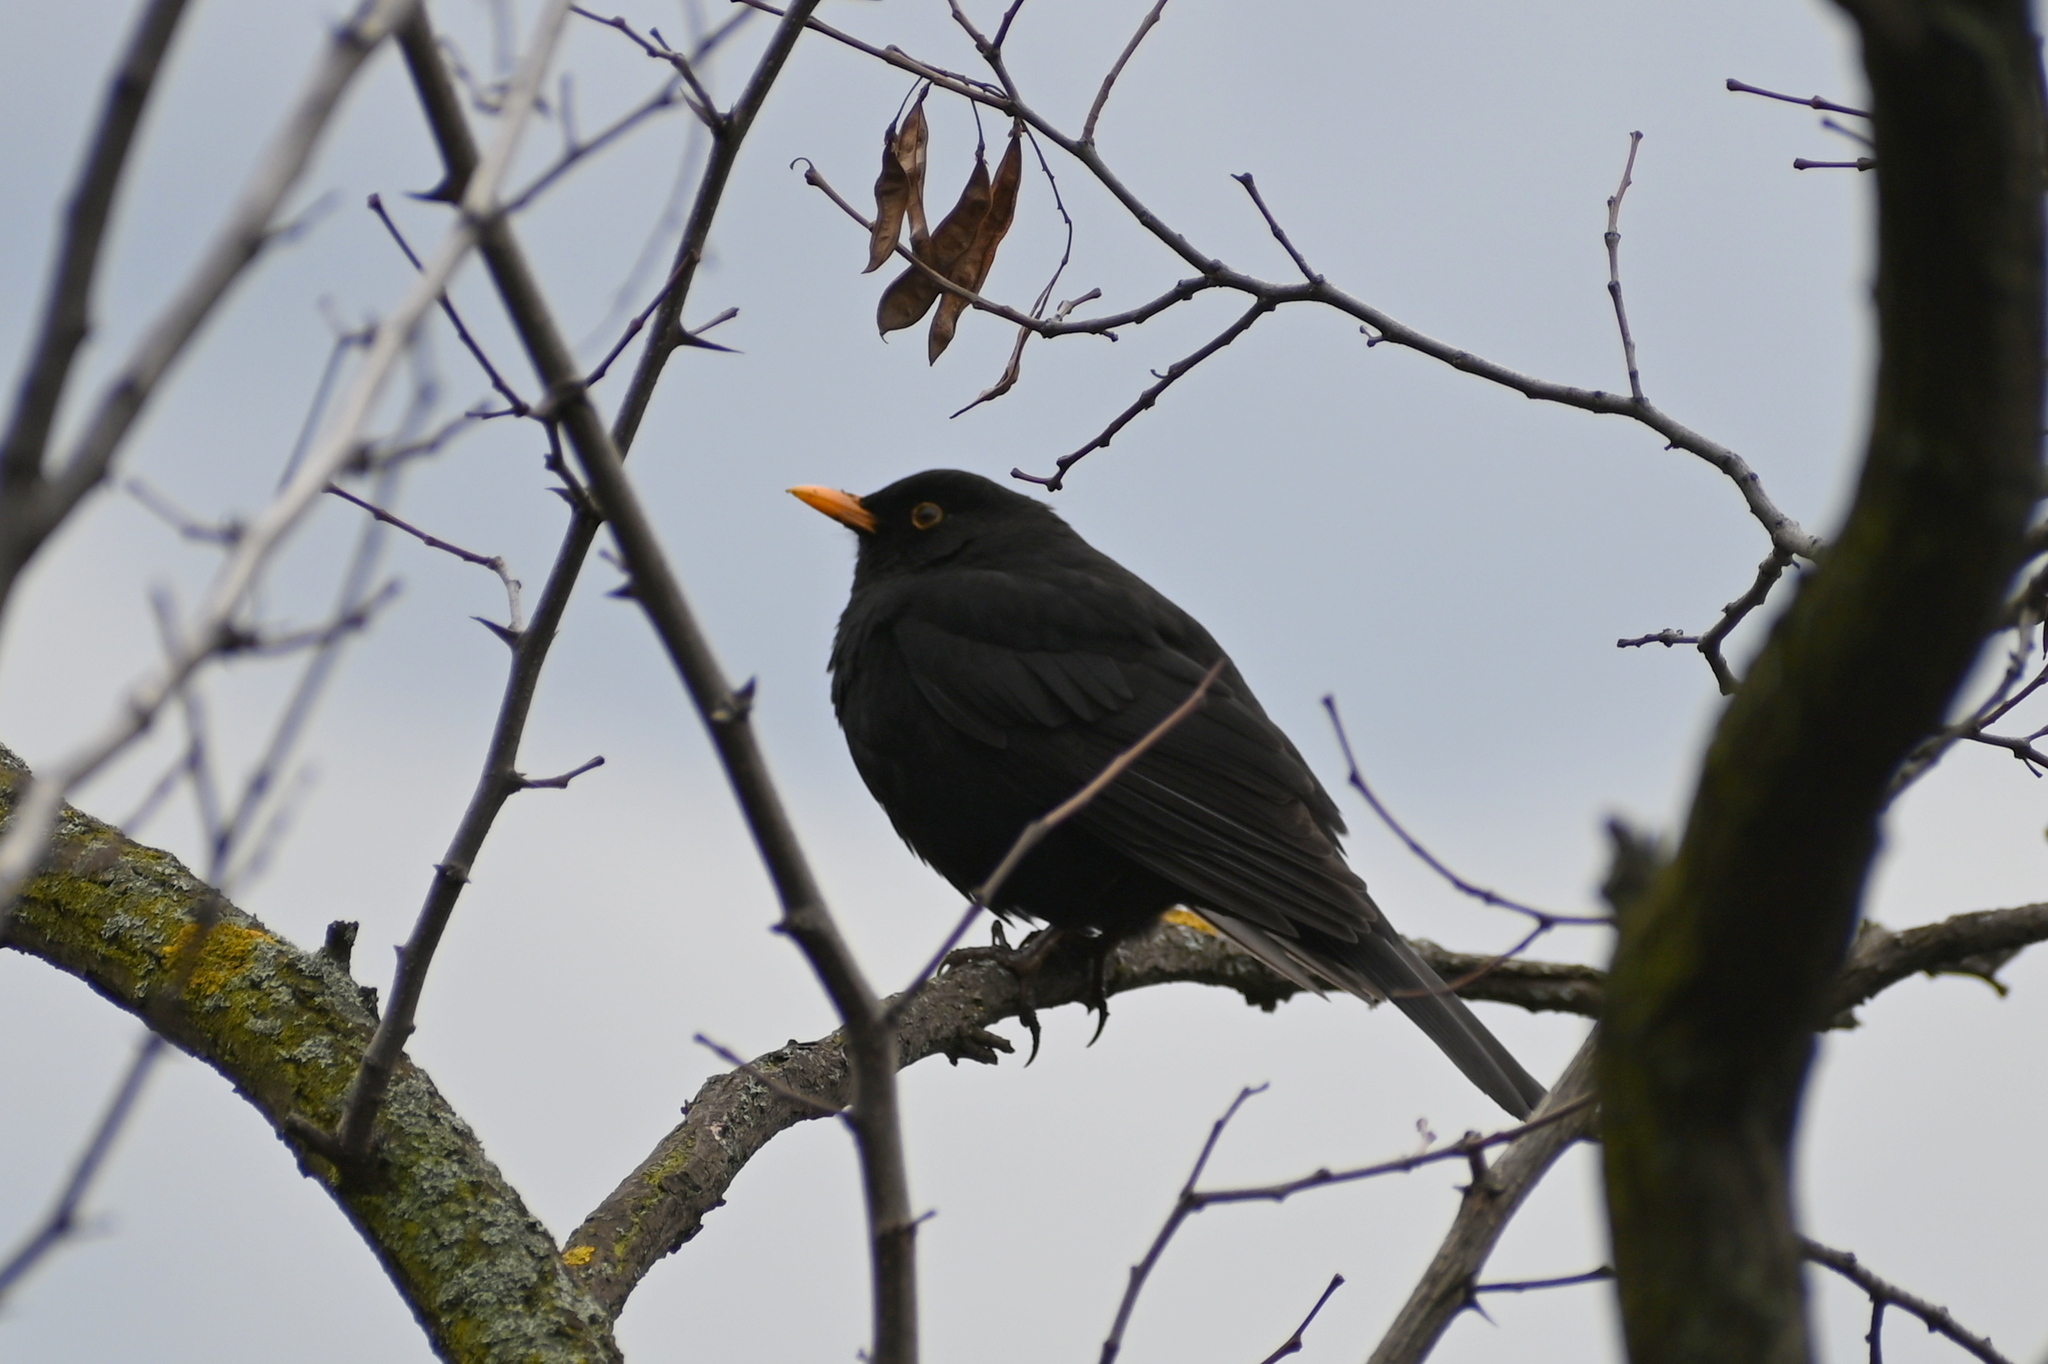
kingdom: Animalia
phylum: Chordata
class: Aves
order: Passeriformes
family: Turdidae
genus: Turdus
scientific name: Turdus merula
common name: Common blackbird
